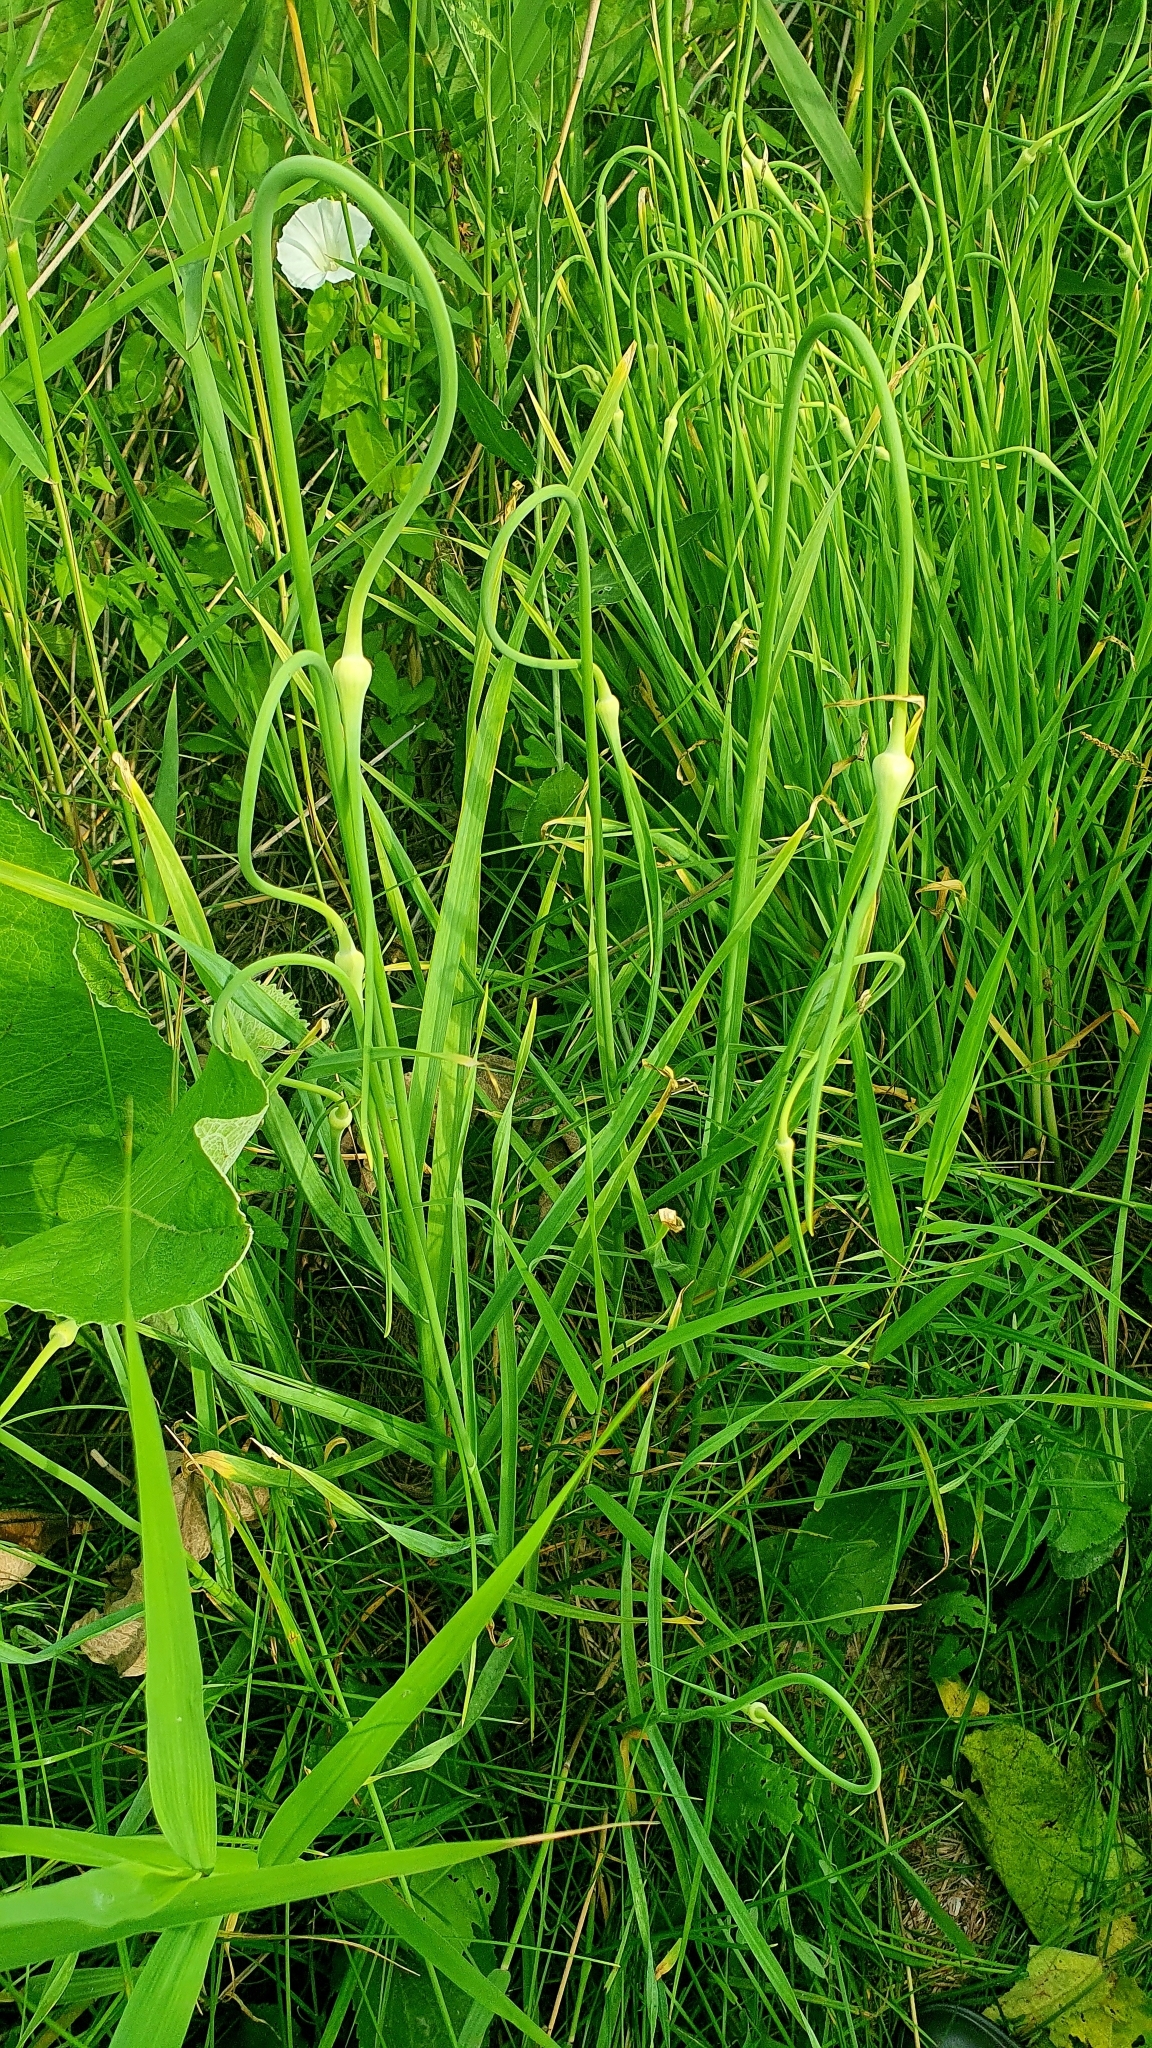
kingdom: Plantae
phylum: Tracheophyta
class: Liliopsida
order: Asparagales
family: Amaryllidaceae
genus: Allium
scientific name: Allium sativum
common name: Garlic
